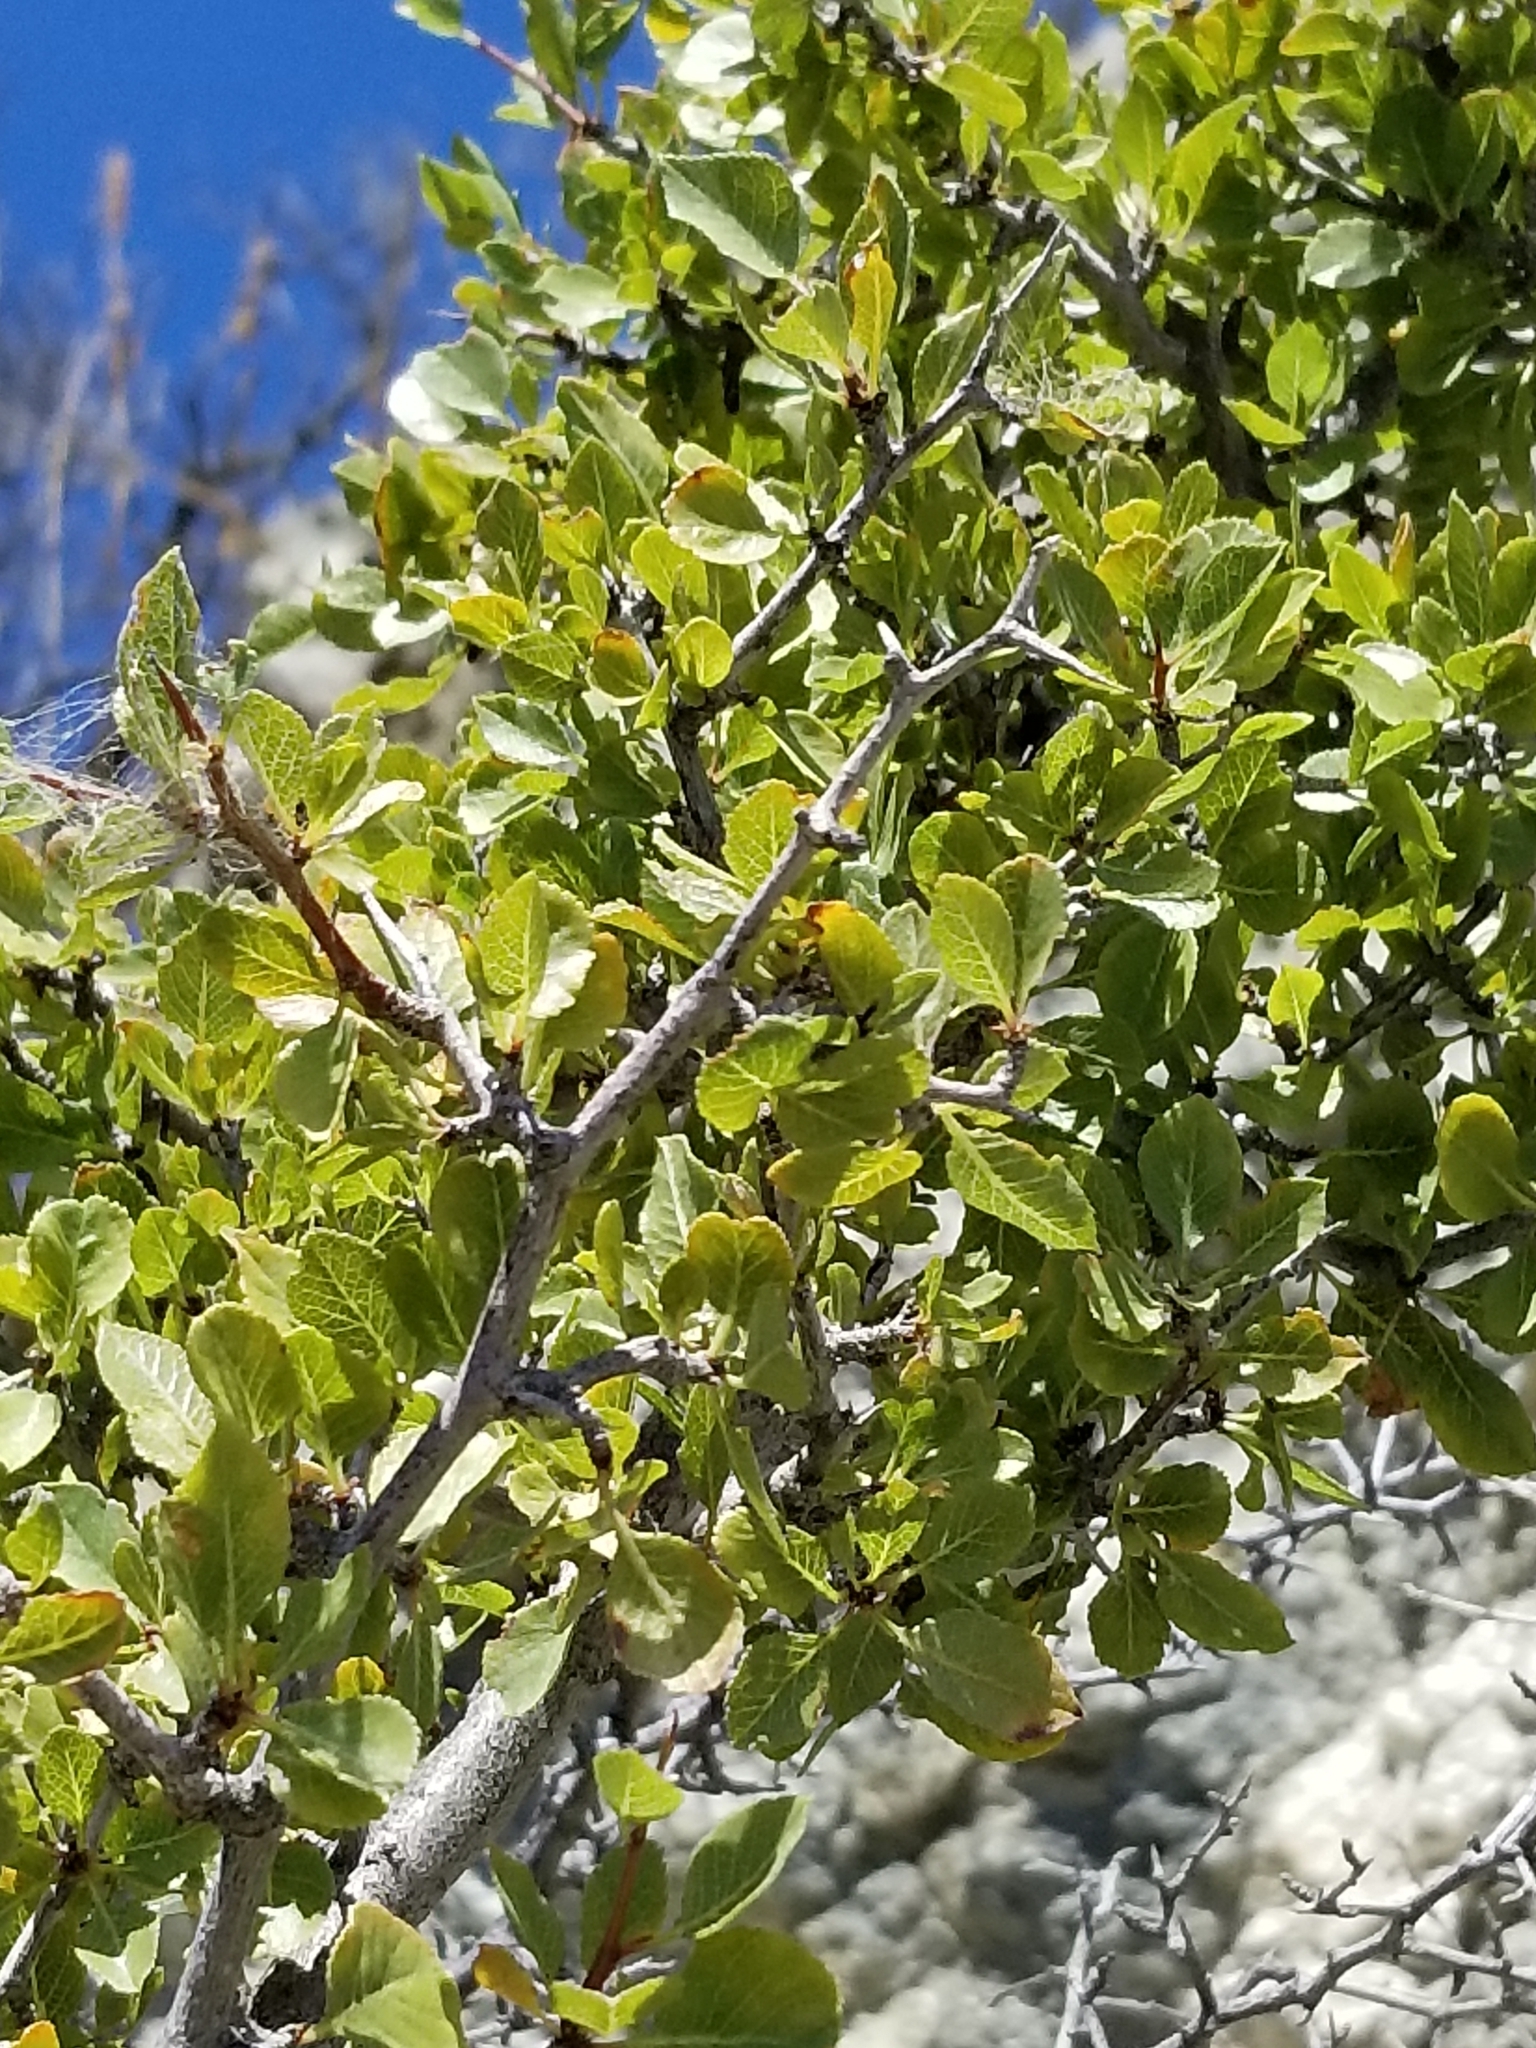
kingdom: Plantae
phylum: Tracheophyta
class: Magnoliopsida
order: Rosales
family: Rosaceae
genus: Prunus
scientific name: Prunus fremontii
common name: Desert apricot
